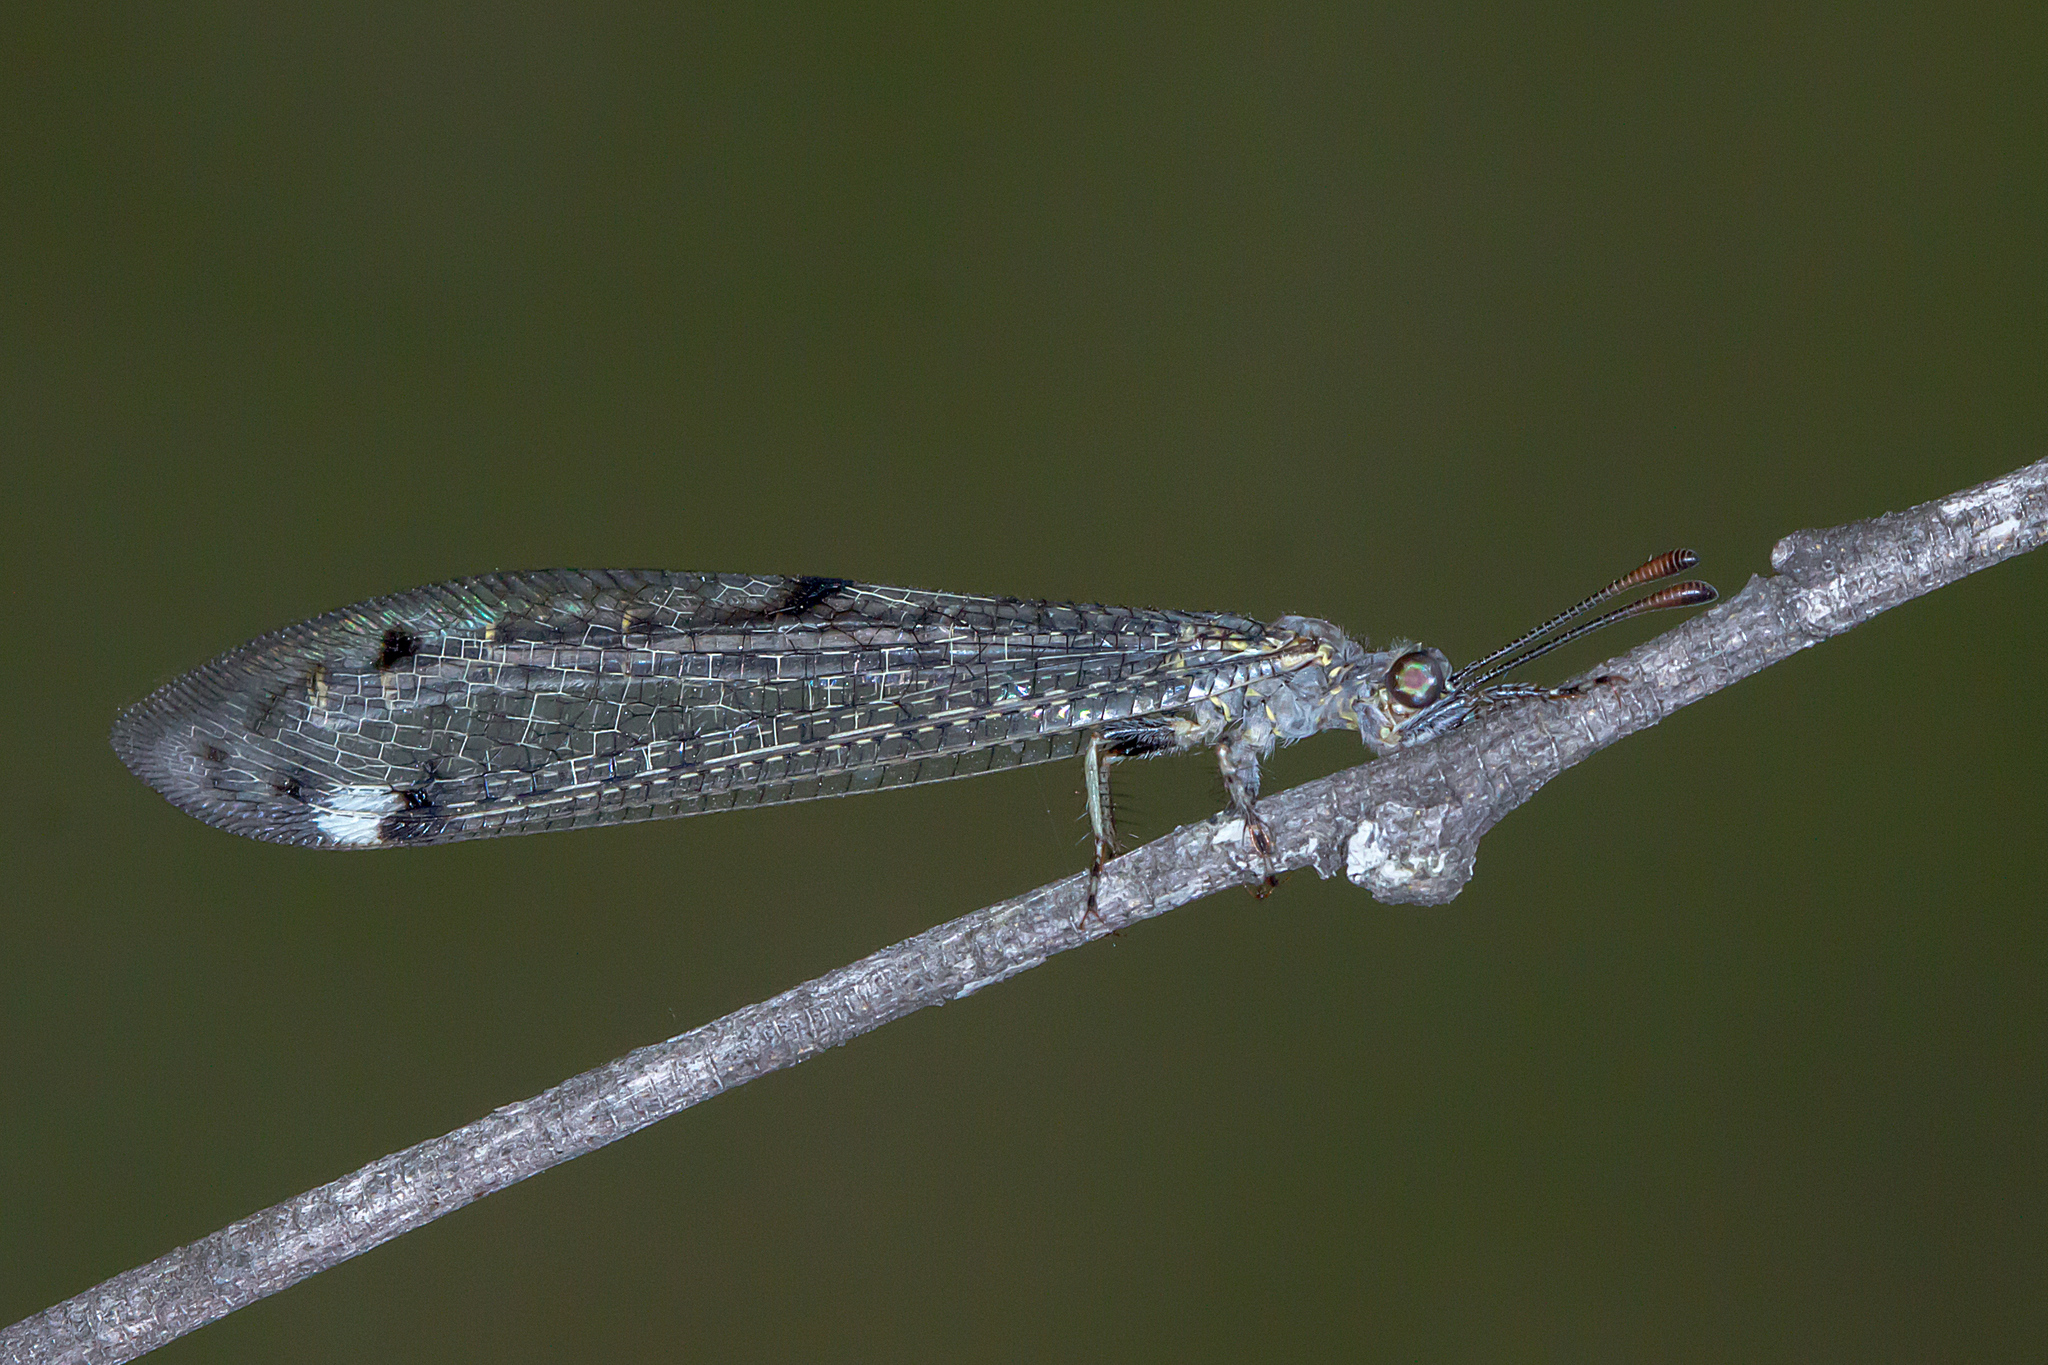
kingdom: Animalia
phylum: Arthropoda
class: Insecta
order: Neuroptera
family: Myrmeleontidae
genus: Bandidus
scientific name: Bandidus canifrons
